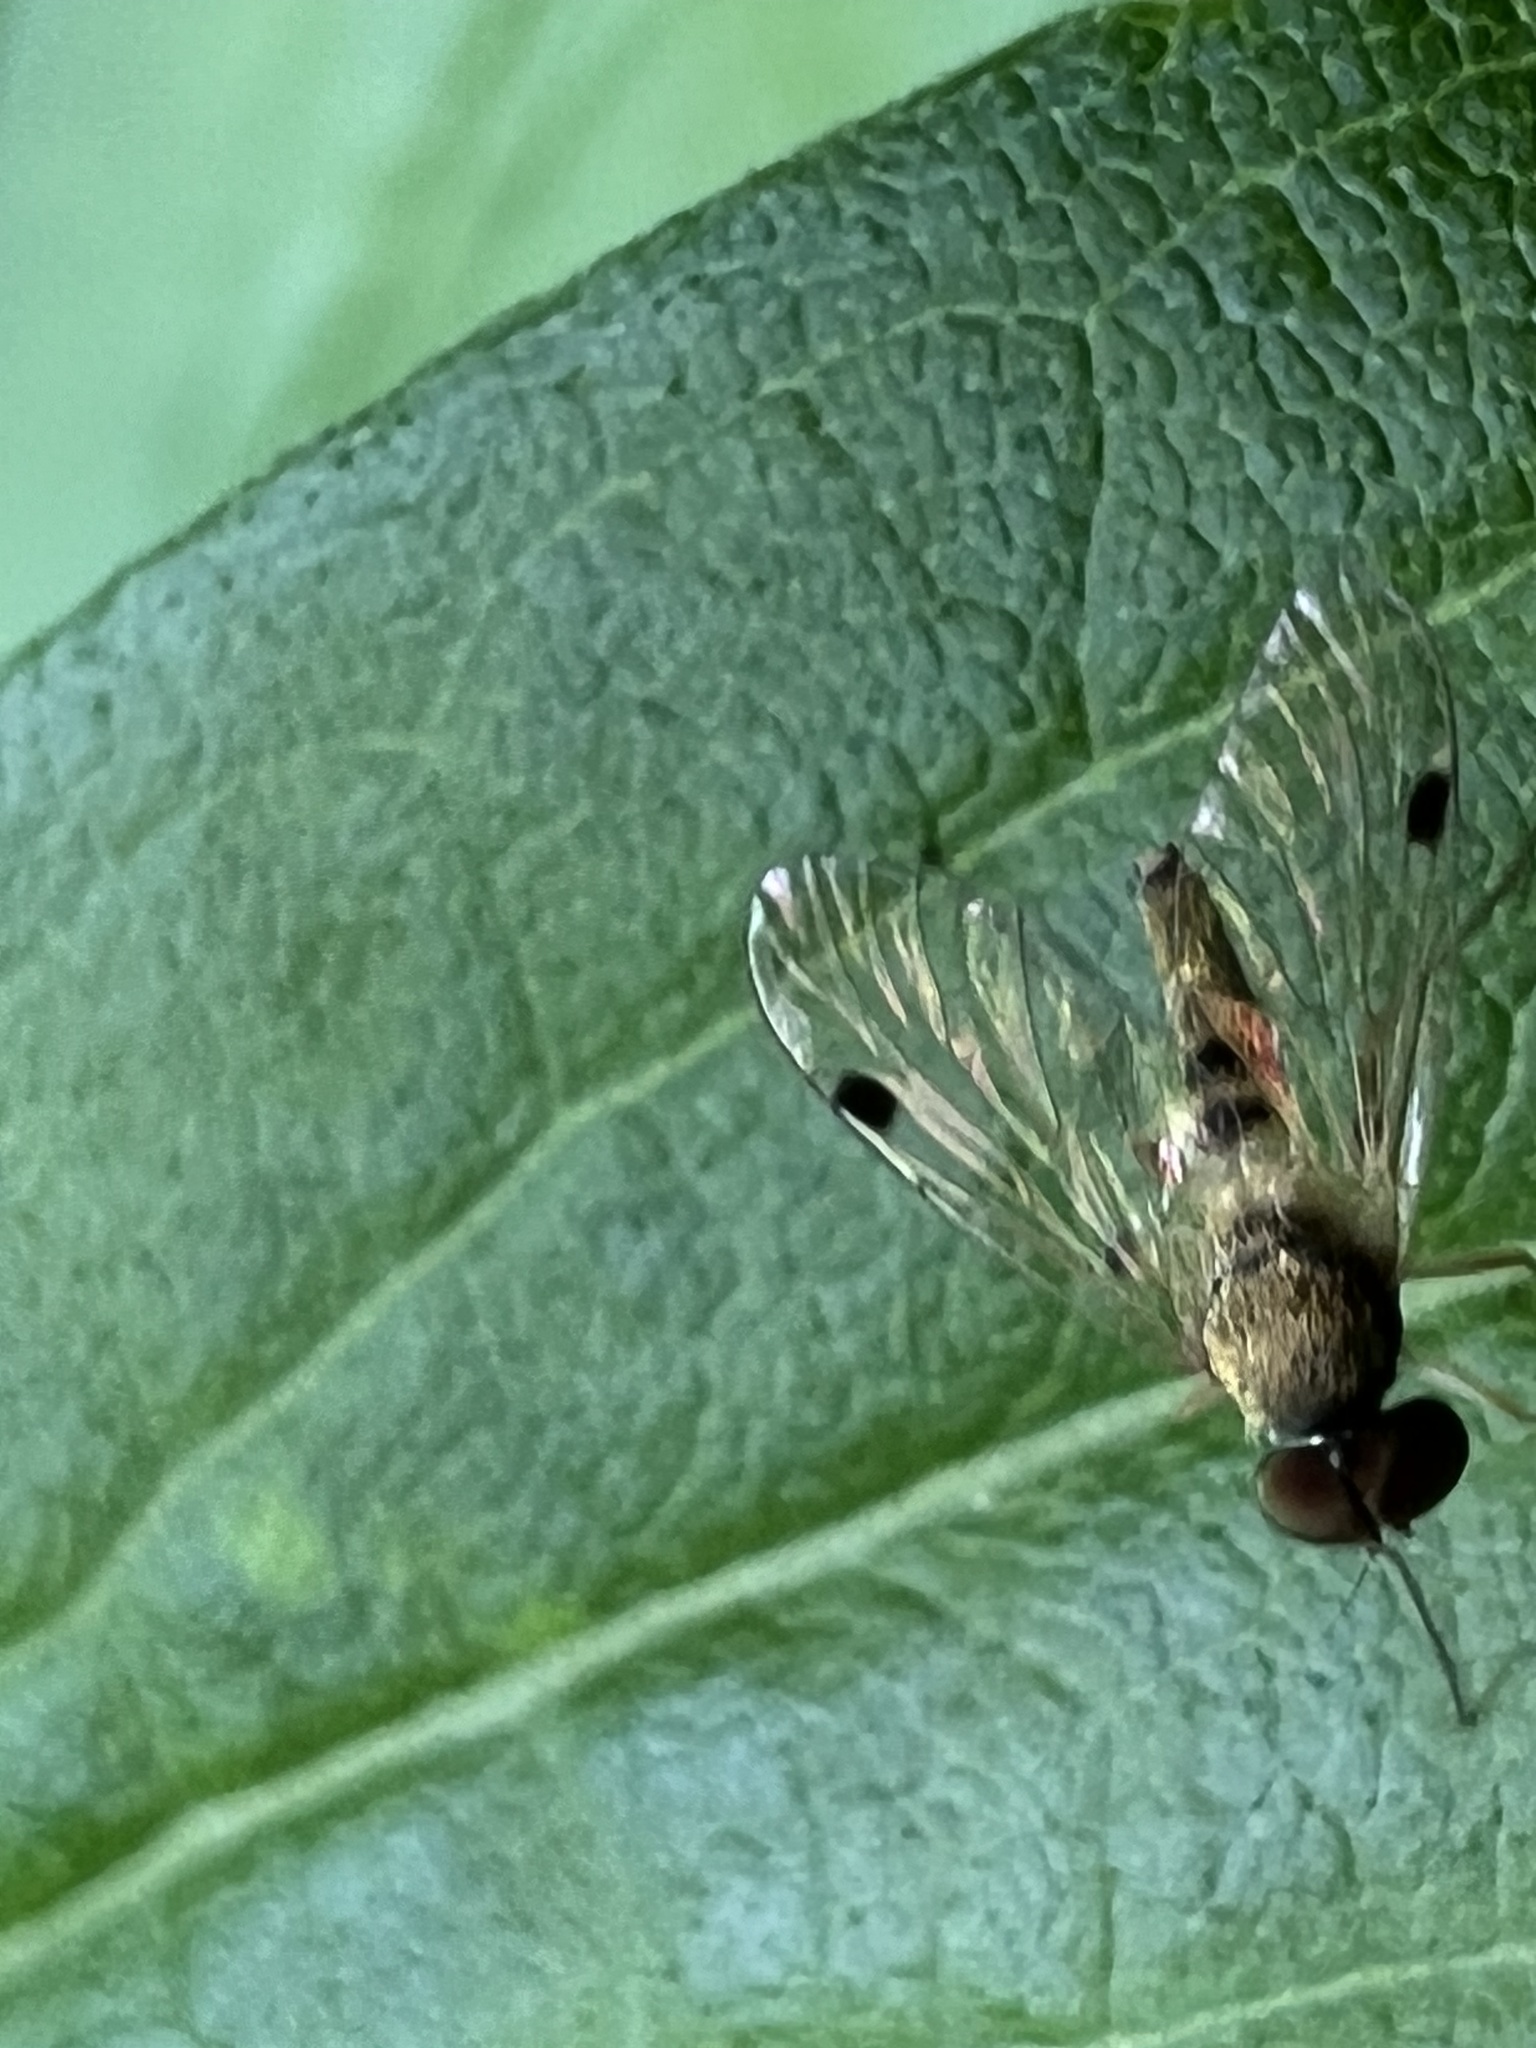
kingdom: Animalia
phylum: Arthropoda
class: Insecta
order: Diptera
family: Rhagionidae
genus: Chrysopilus
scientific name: Chrysopilus modestus
